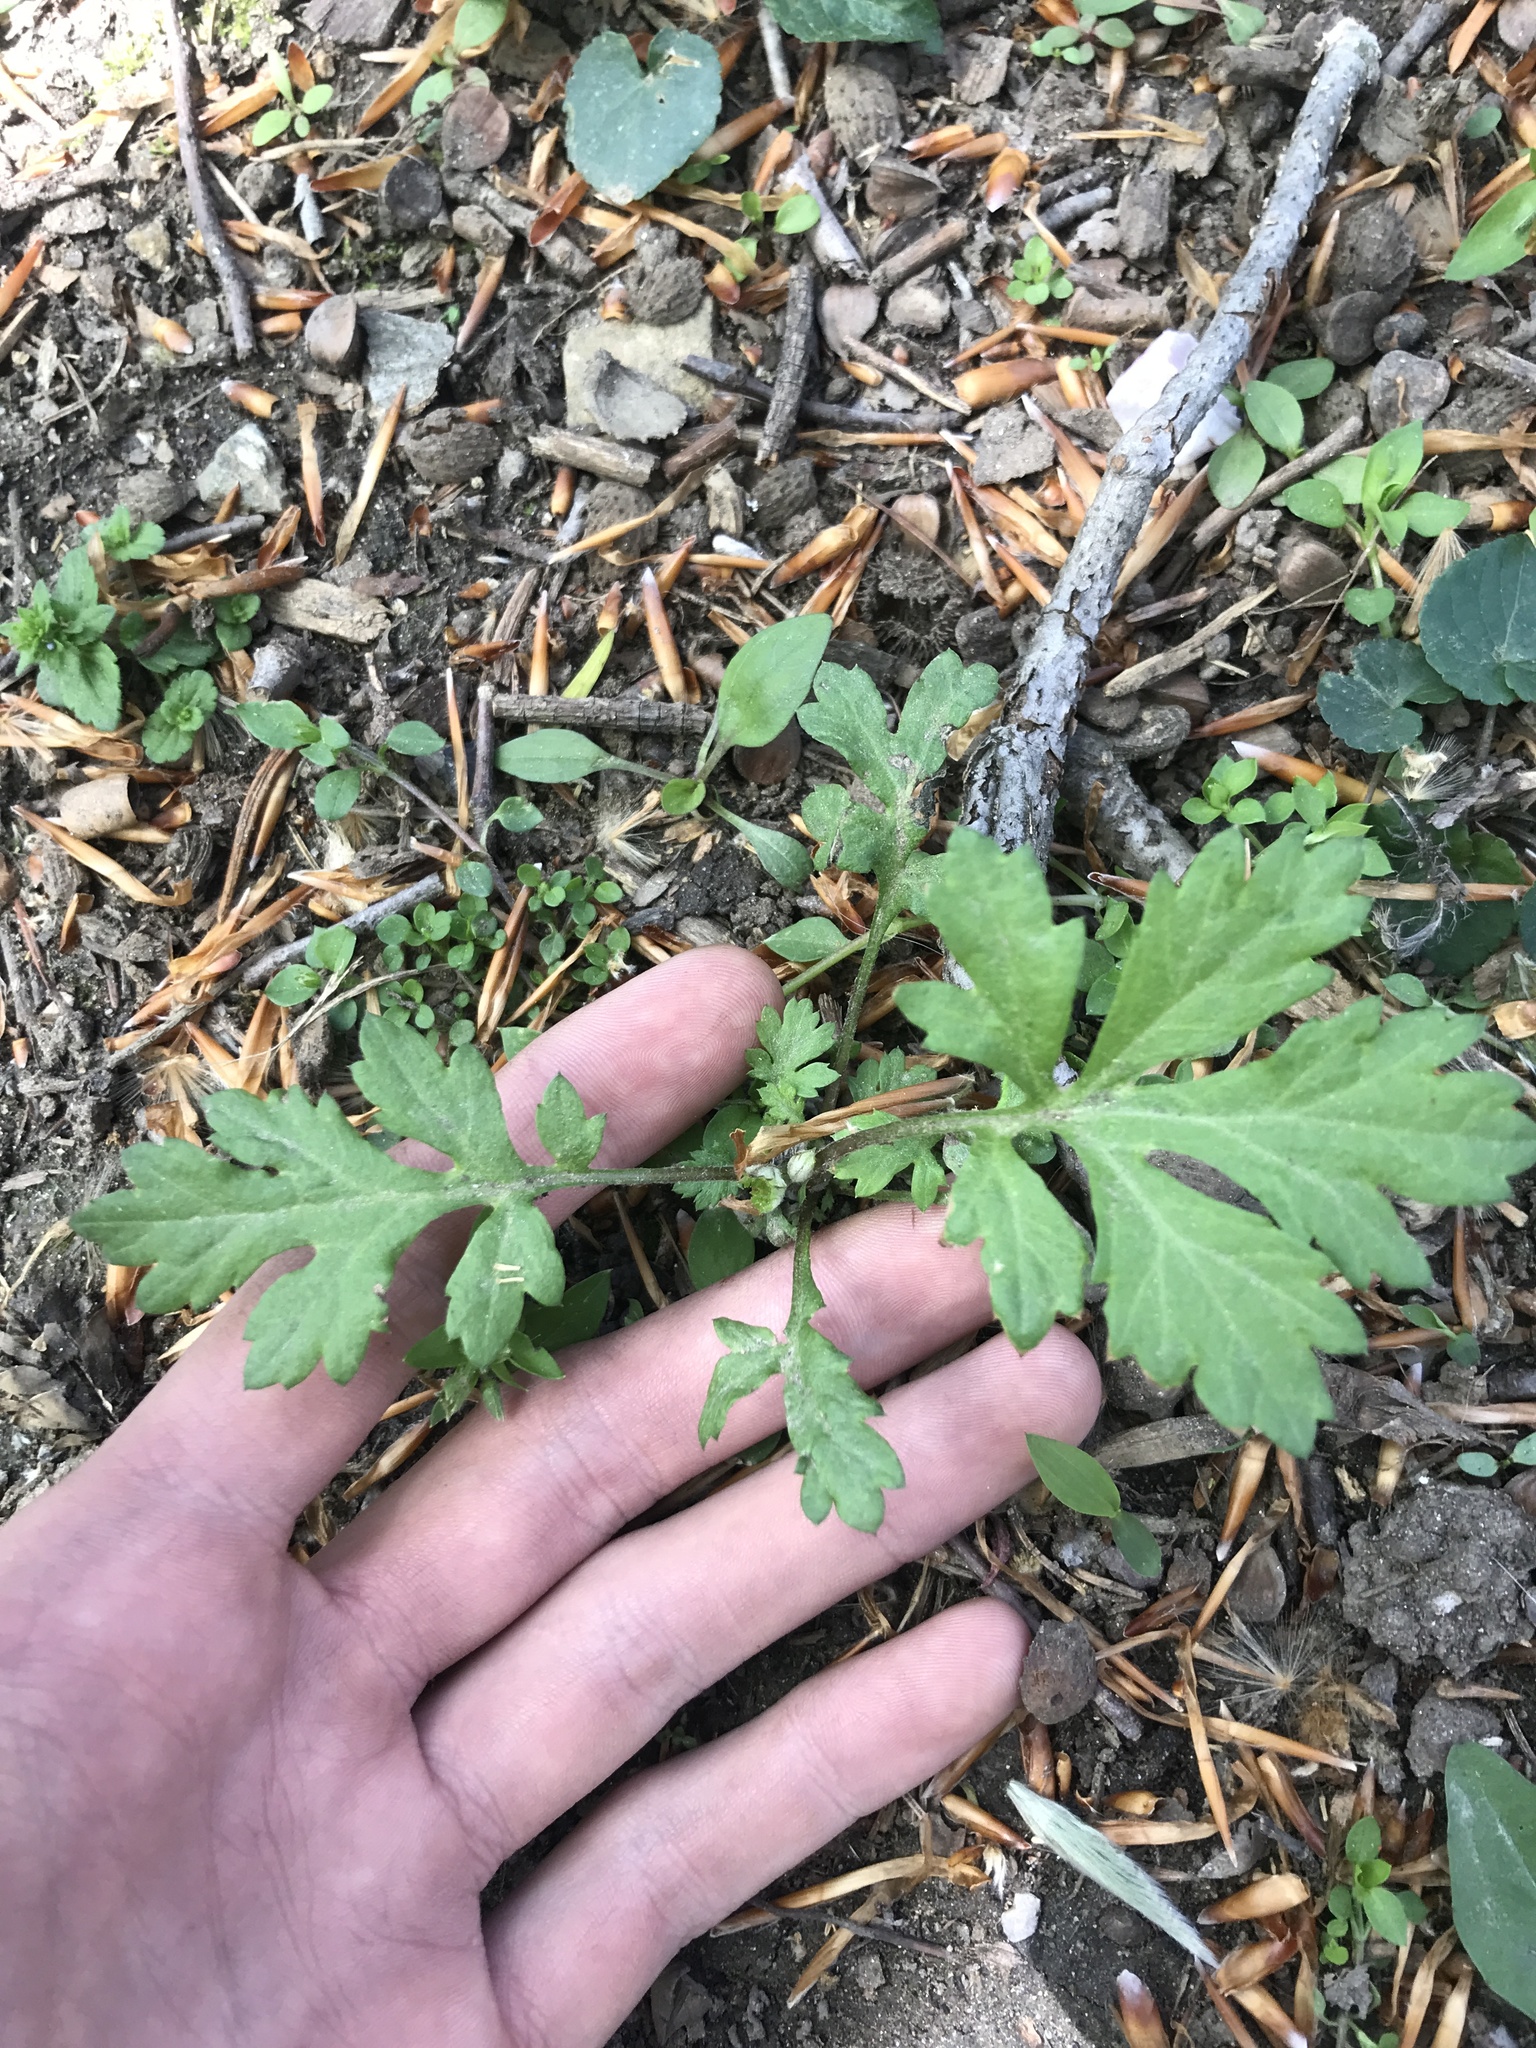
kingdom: Plantae
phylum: Tracheophyta
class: Magnoliopsida
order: Asterales
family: Asteraceae
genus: Artemisia
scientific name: Artemisia vulgaris
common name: Mugwort
